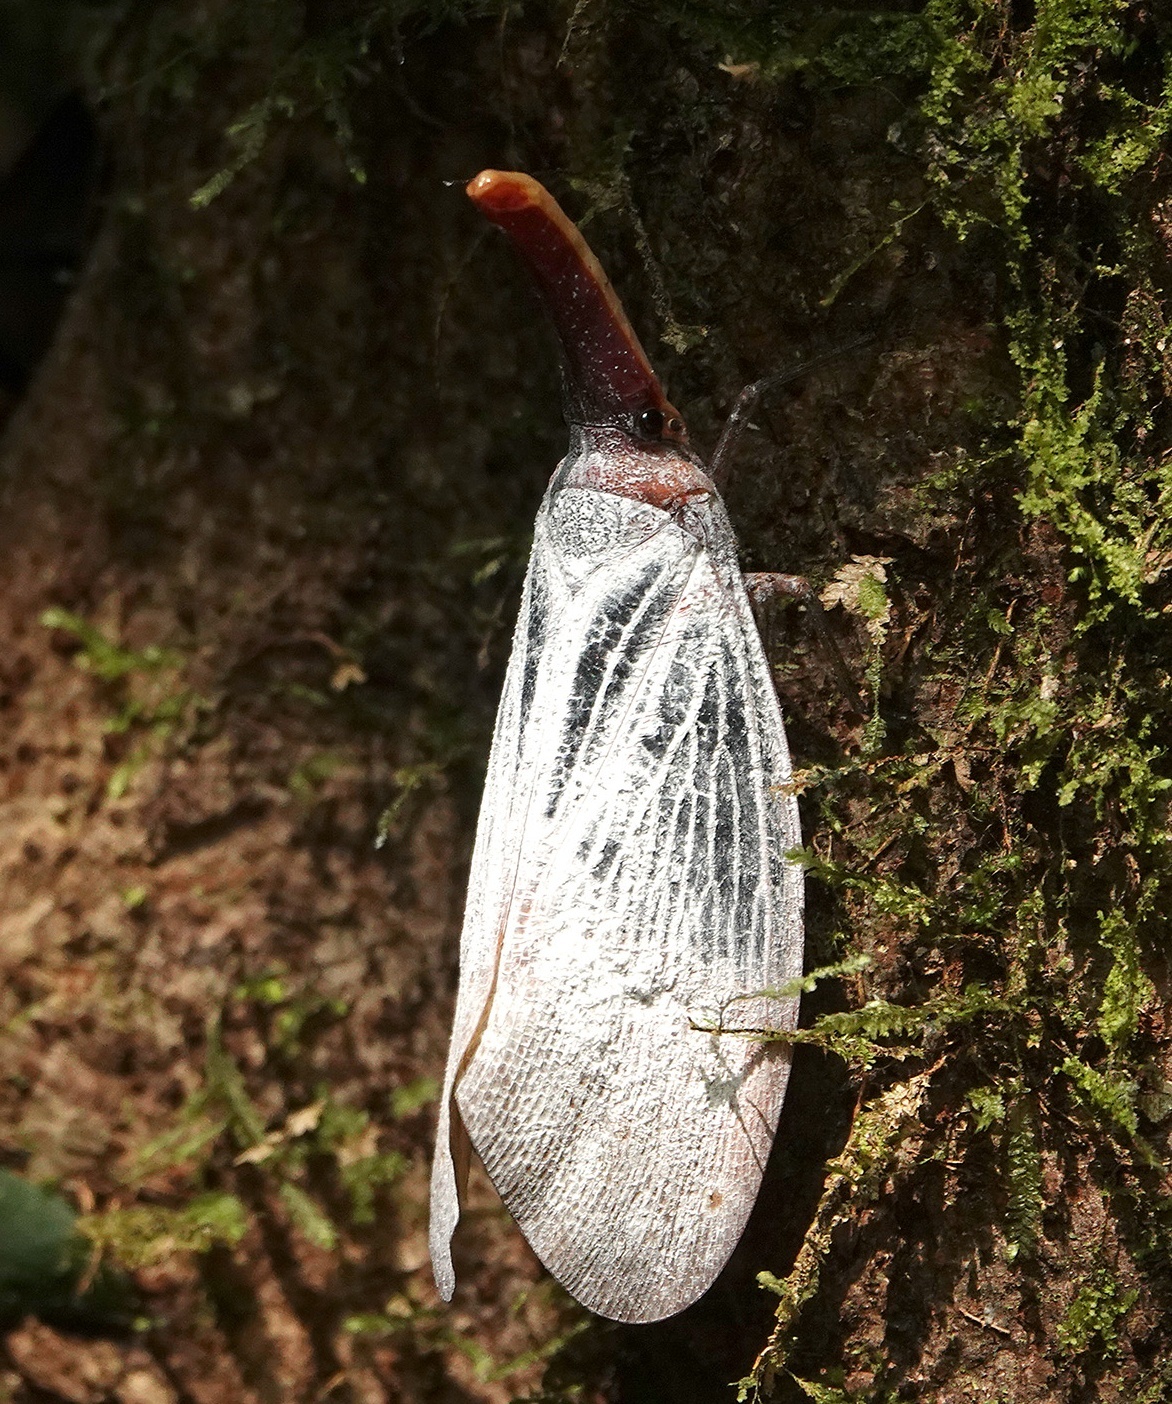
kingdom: Animalia
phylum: Arthropoda
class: Insecta
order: Hemiptera
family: Fulgoridae
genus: Pyrops
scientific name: Pyrops sultanus
